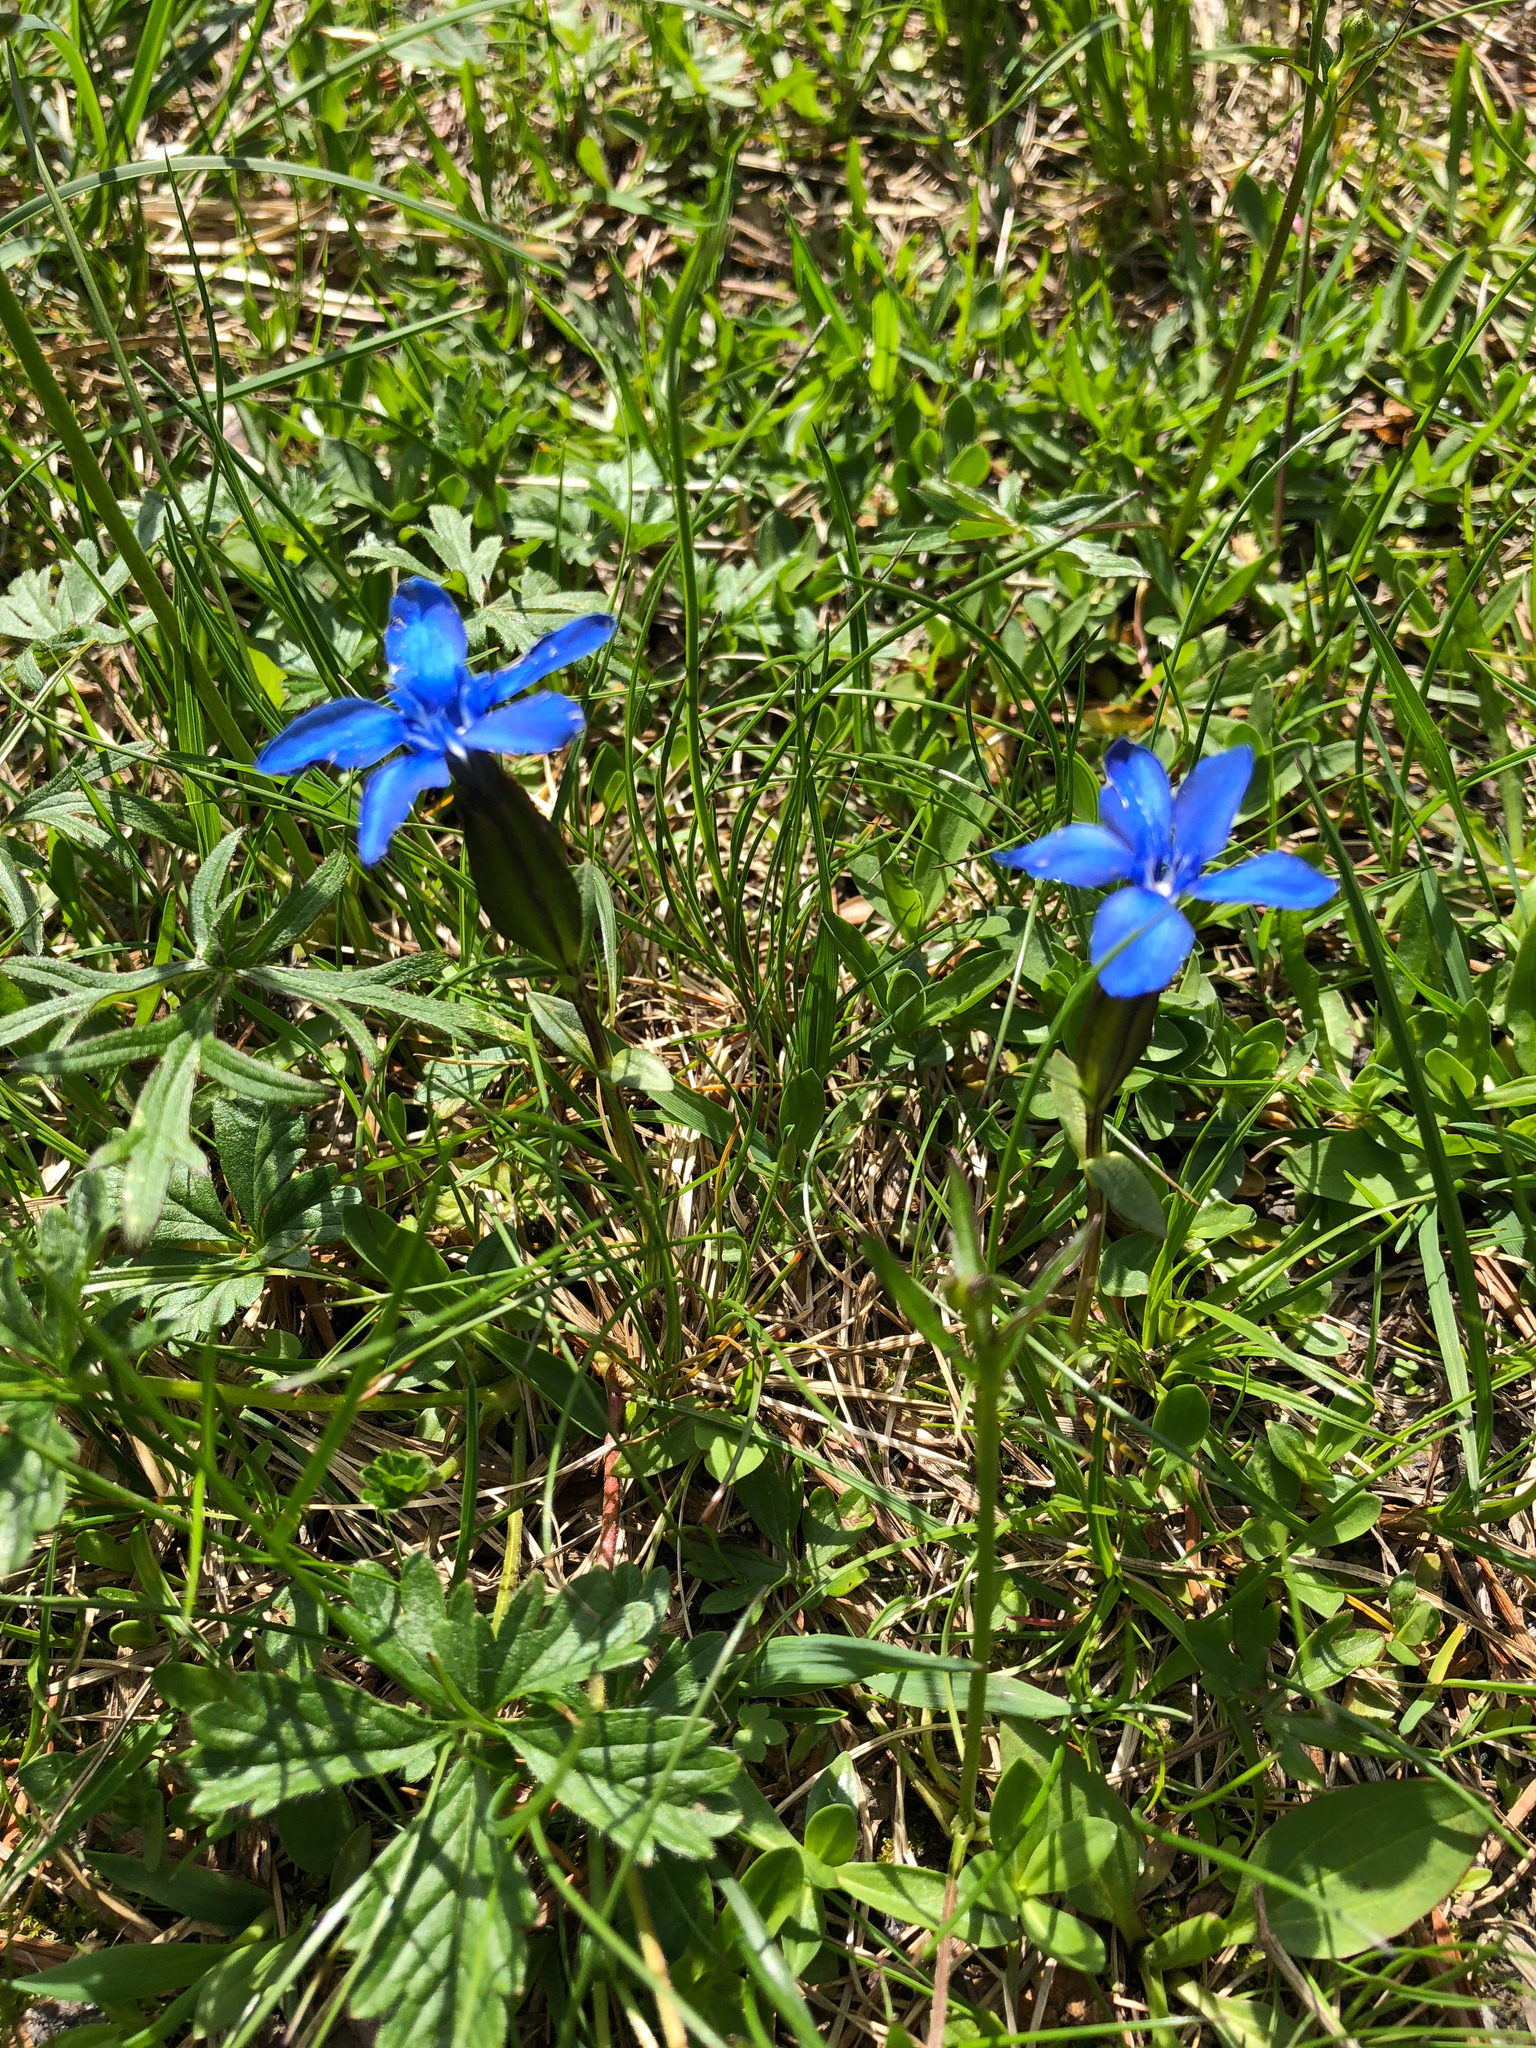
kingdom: Plantae
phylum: Tracheophyta
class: Magnoliopsida
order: Gentianales
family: Gentianaceae
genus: Gentiana
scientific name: Gentiana verna
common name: Spring gentian
